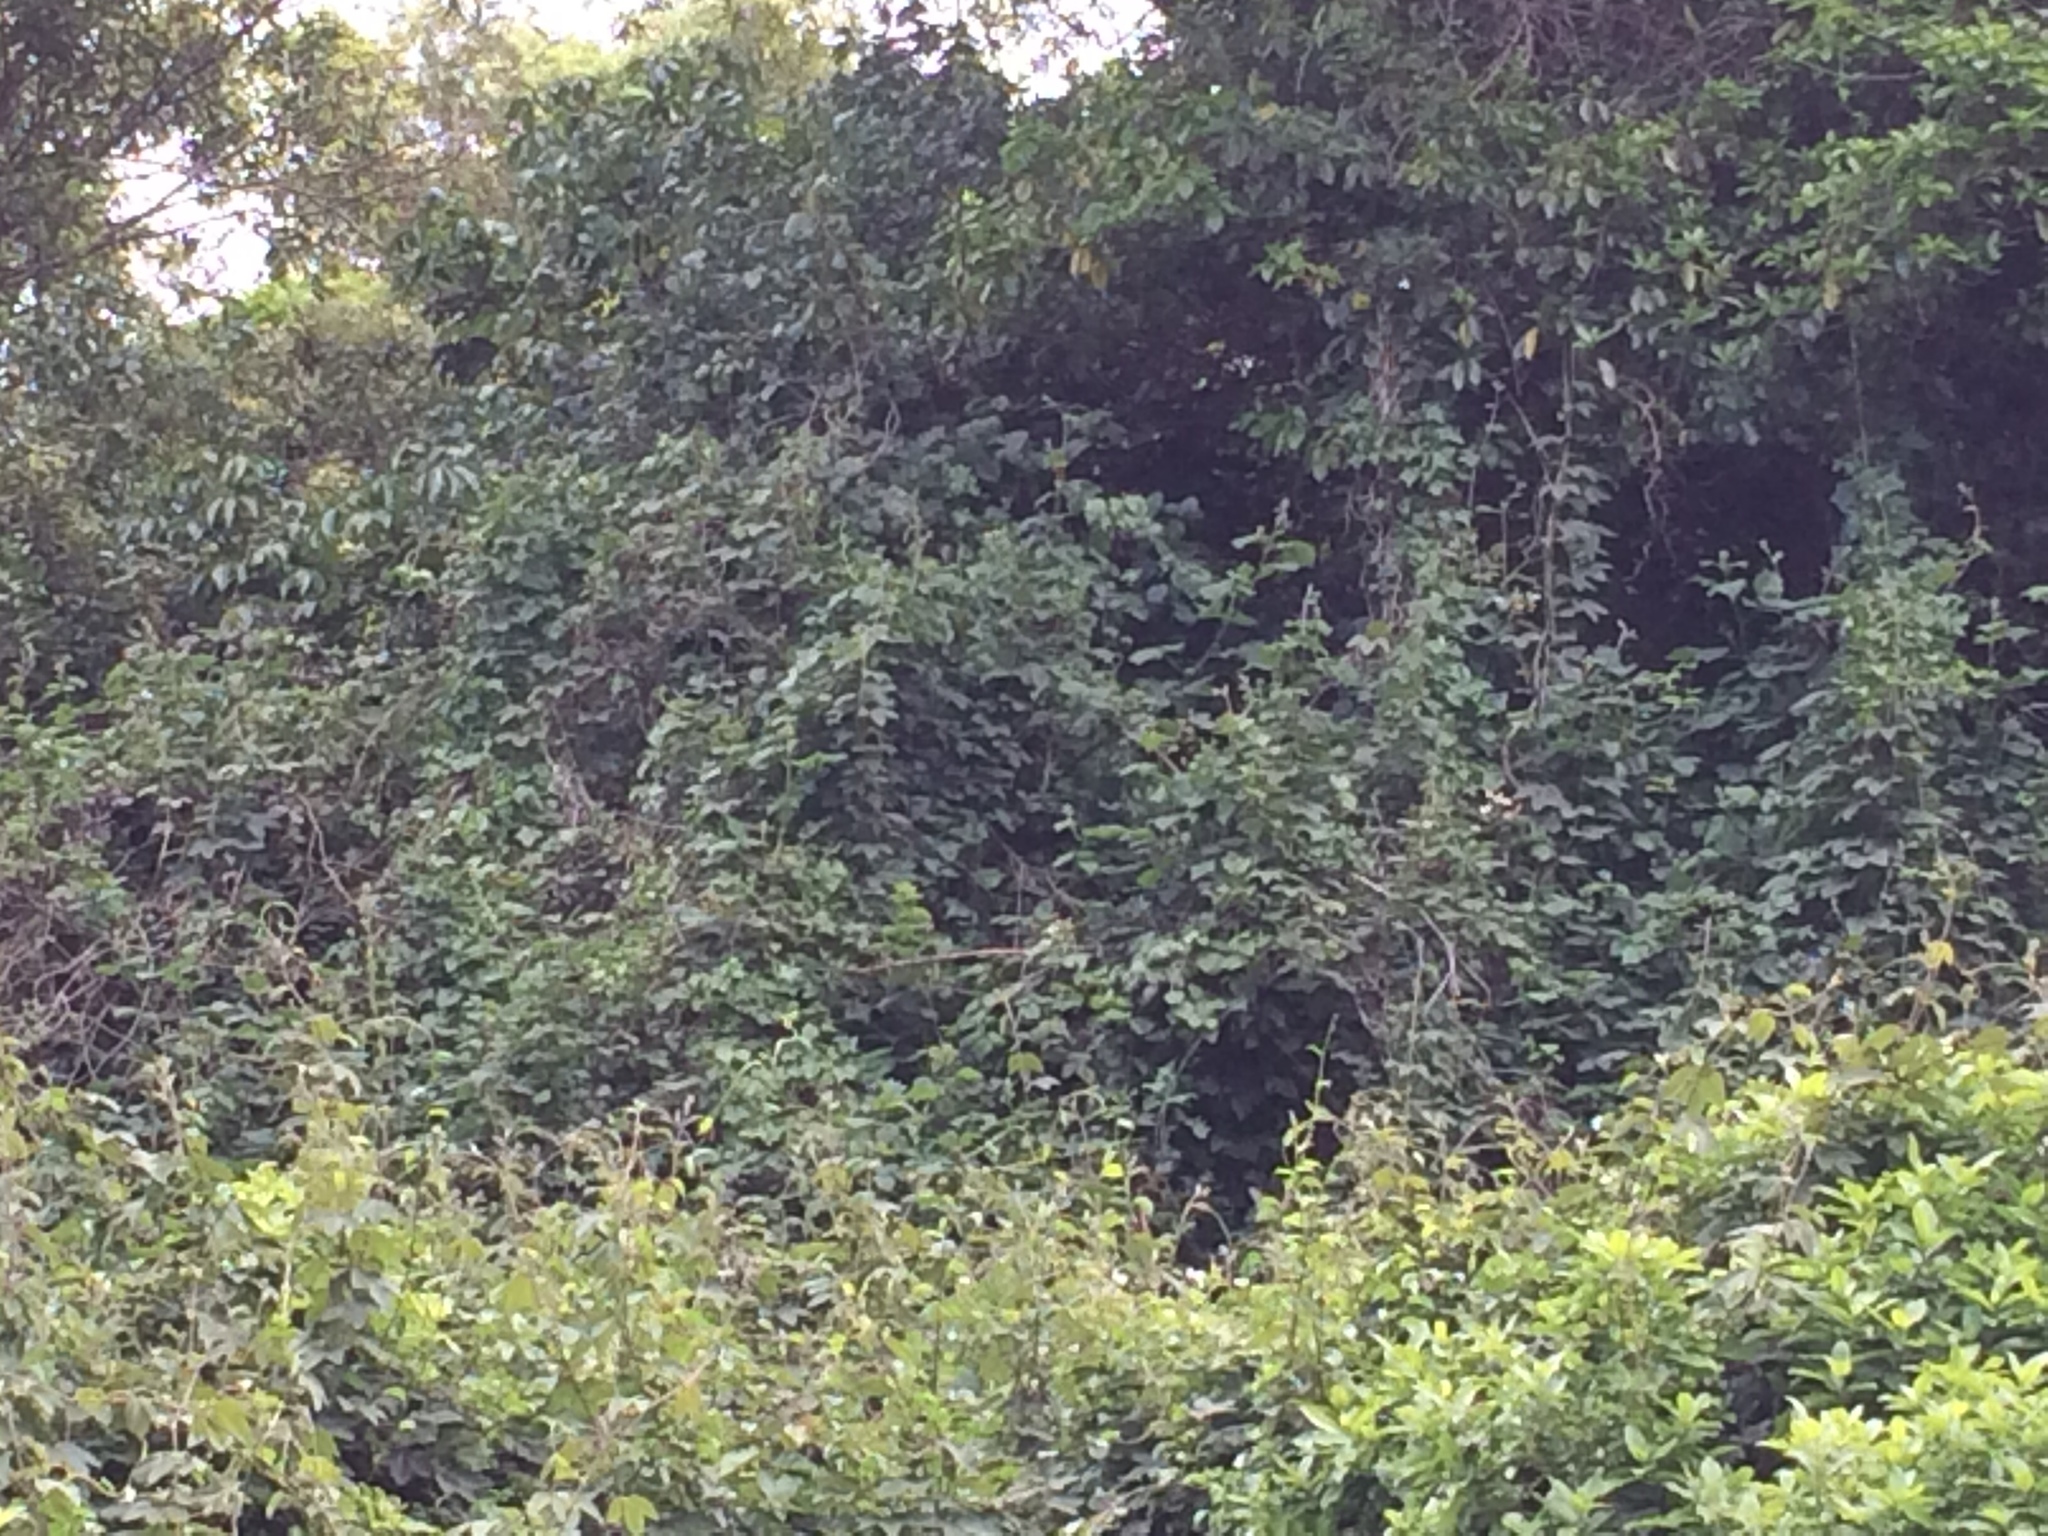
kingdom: Plantae
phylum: Tracheophyta
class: Magnoliopsida
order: Malpighiales
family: Passifloraceae
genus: Passiflora
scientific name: Passiflora tripartita
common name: Banana poka
